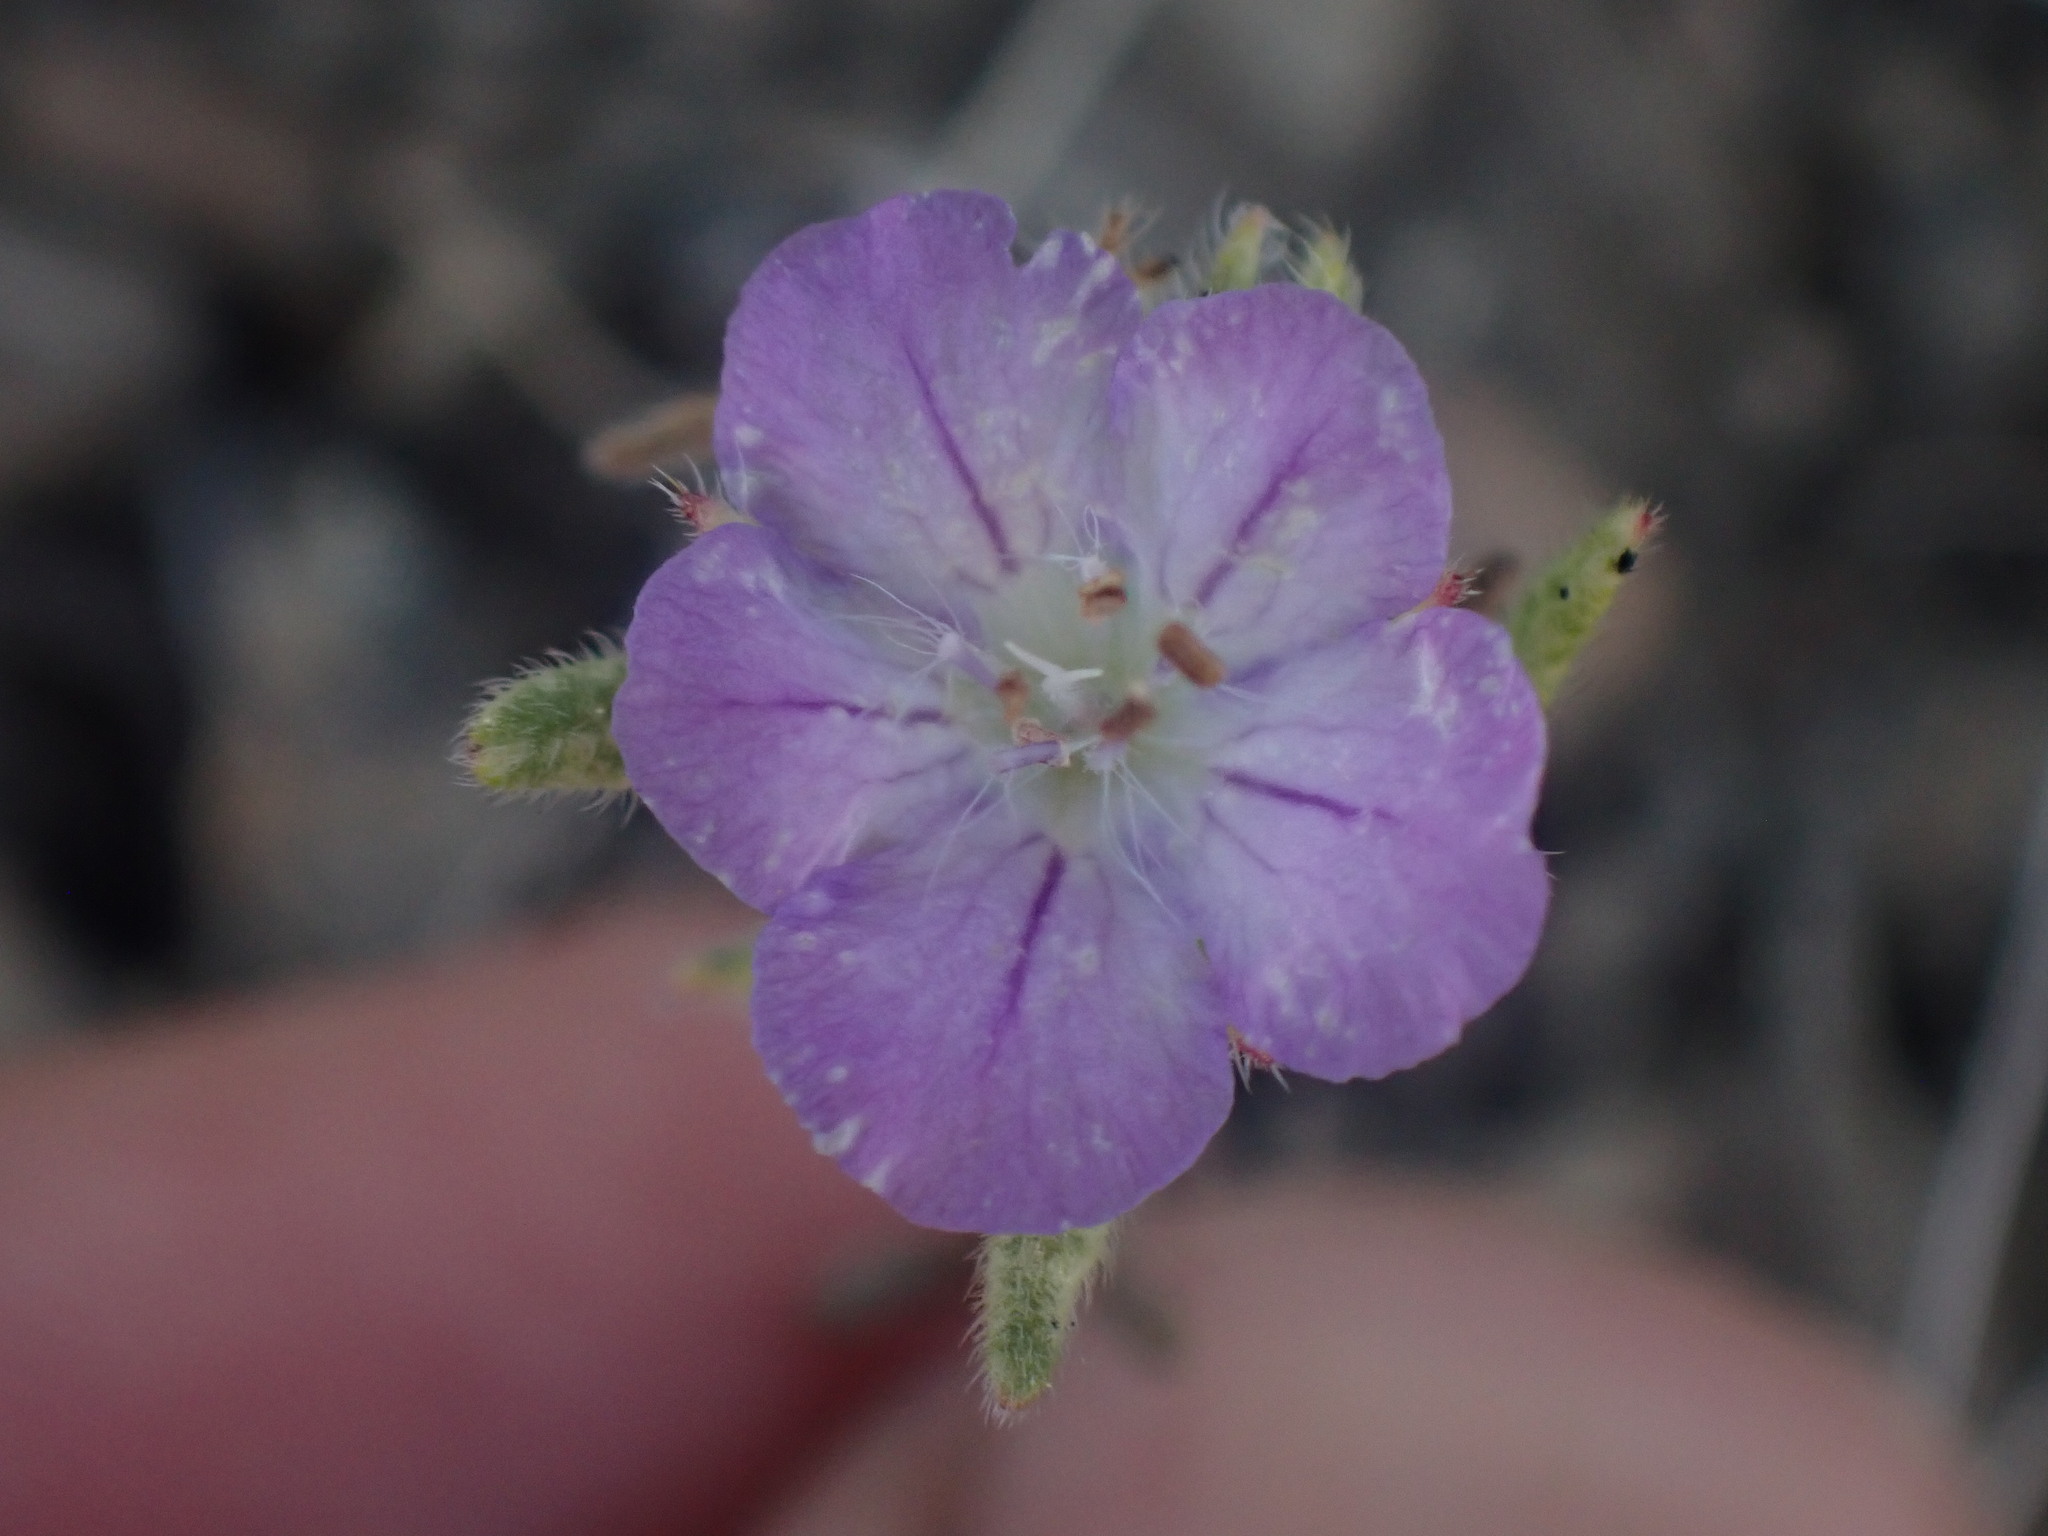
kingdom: Plantae
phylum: Tracheophyta
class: Magnoliopsida
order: Boraginales
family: Hydrophyllaceae
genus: Phacelia
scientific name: Phacelia linearis
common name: Linear-leaved phacelia
